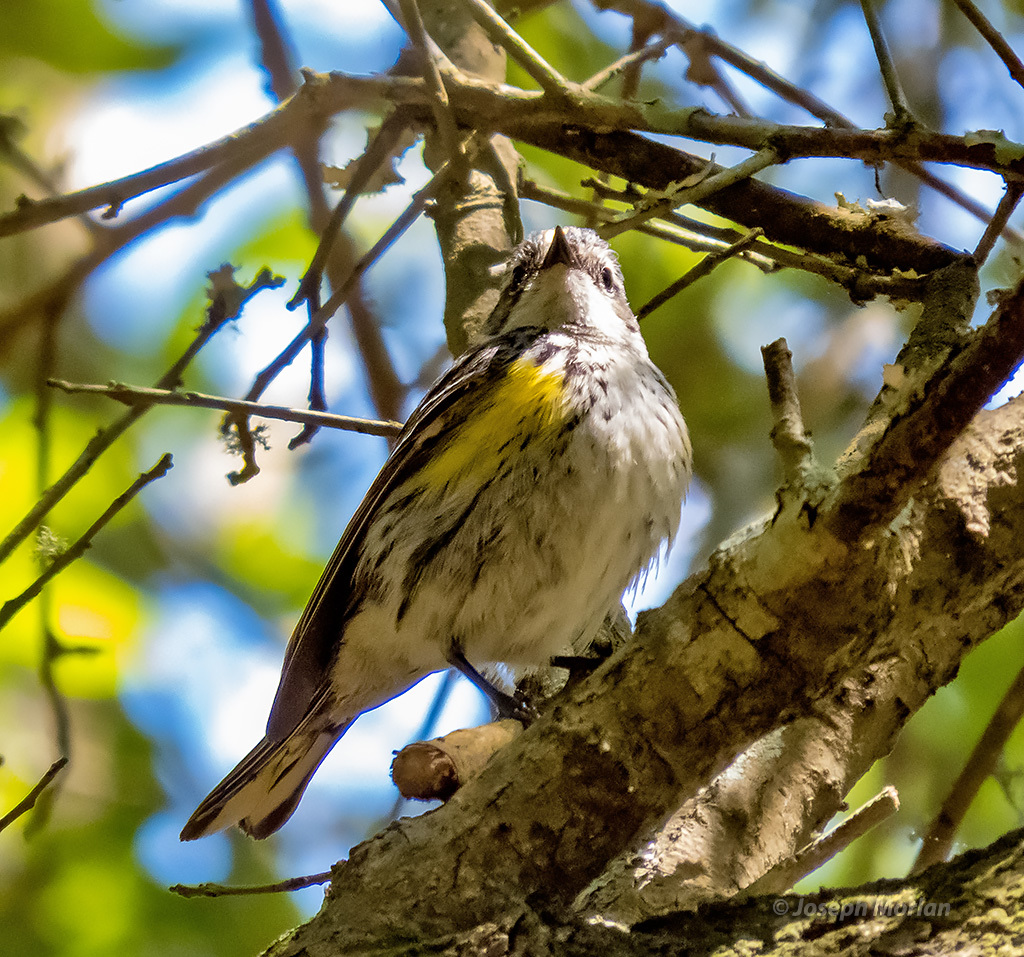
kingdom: Animalia
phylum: Chordata
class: Aves
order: Passeriformes
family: Parulidae
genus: Setophaga
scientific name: Setophaga coronata
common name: Myrtle warbler
